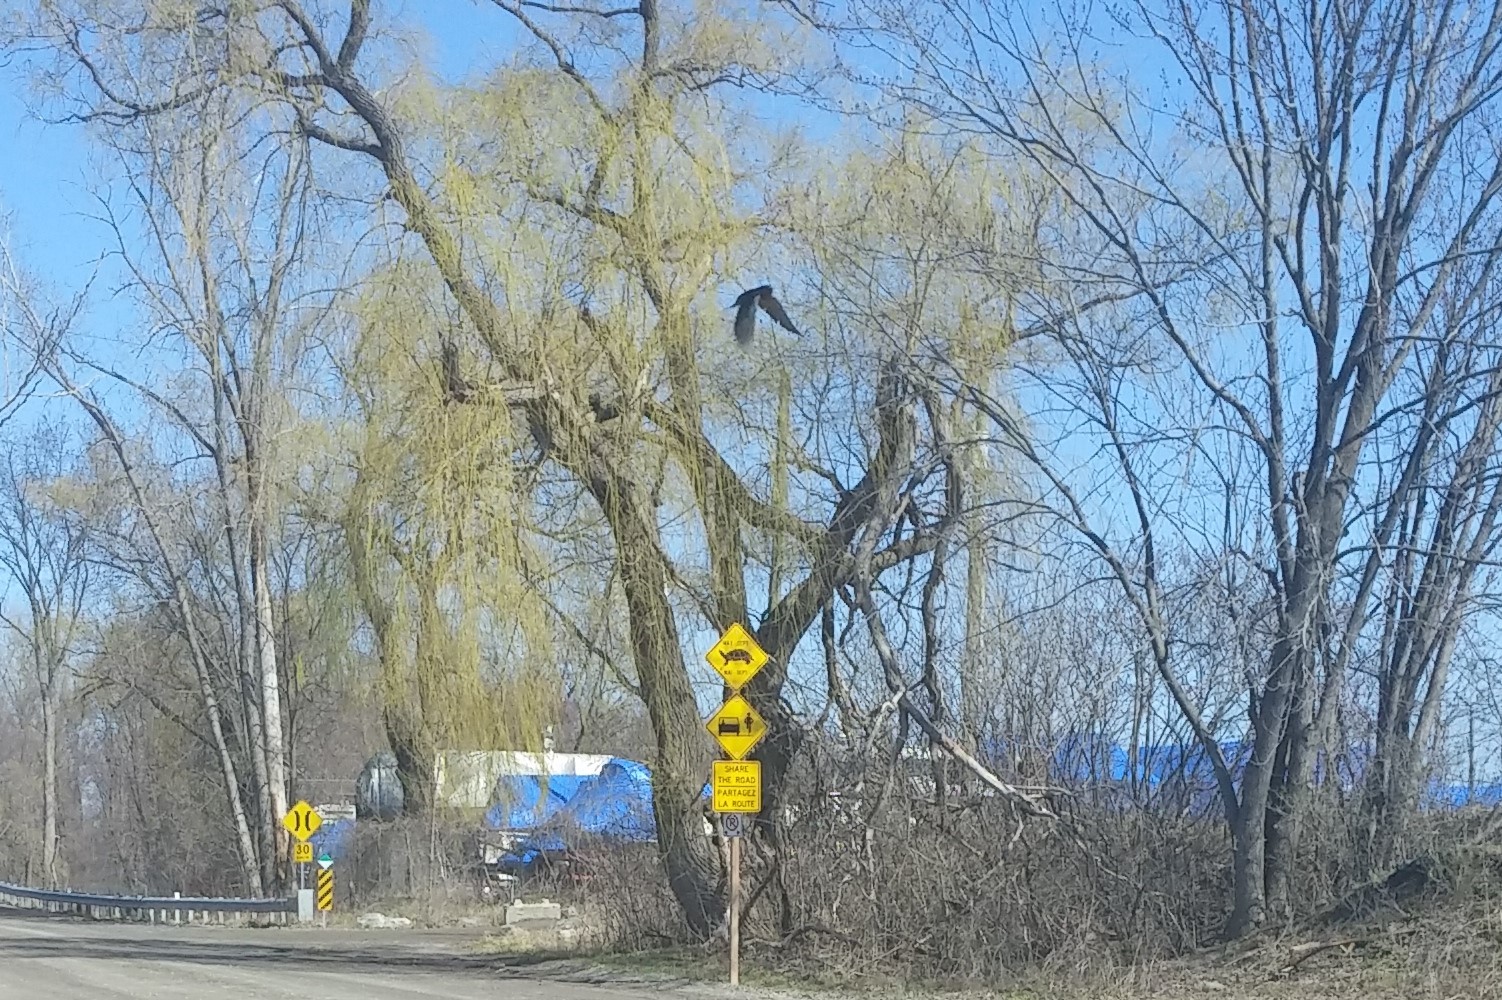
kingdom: Animalia
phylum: Chordata
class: Aves
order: Passeriformes
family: Hirundinidae
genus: Hirundo
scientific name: Hirundo rustica
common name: Barn swallow
